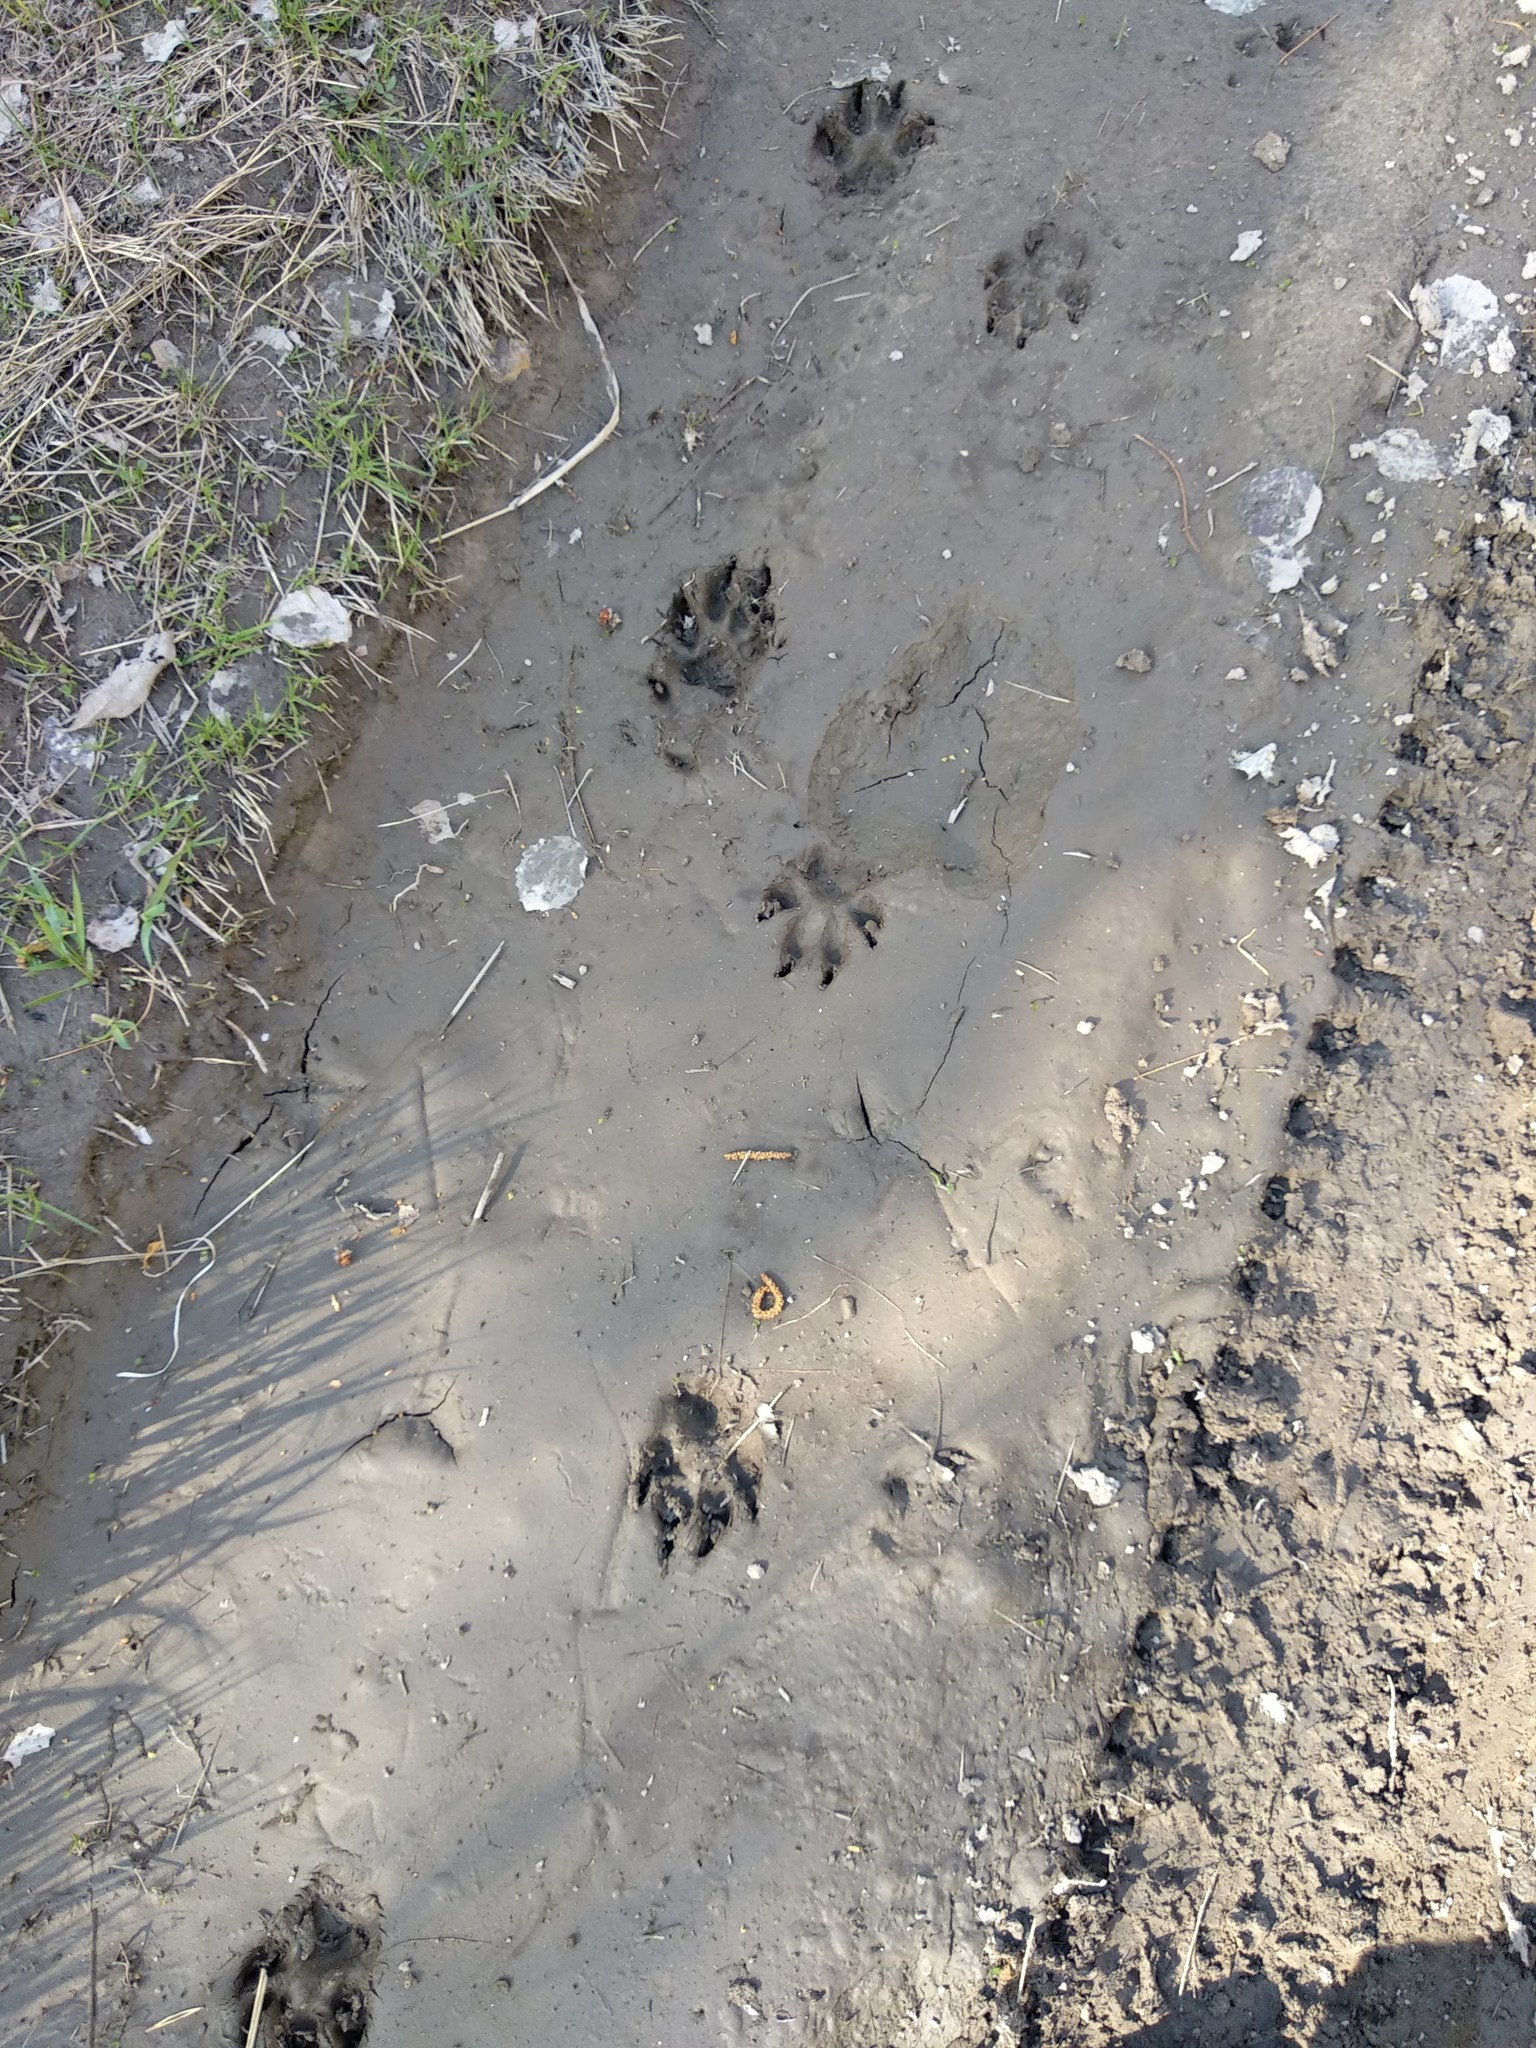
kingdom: Animalia
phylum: Chordata
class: Mammalia
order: Carnivora
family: Canidae
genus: Canis
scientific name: Canis lupus
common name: Gray wolf
